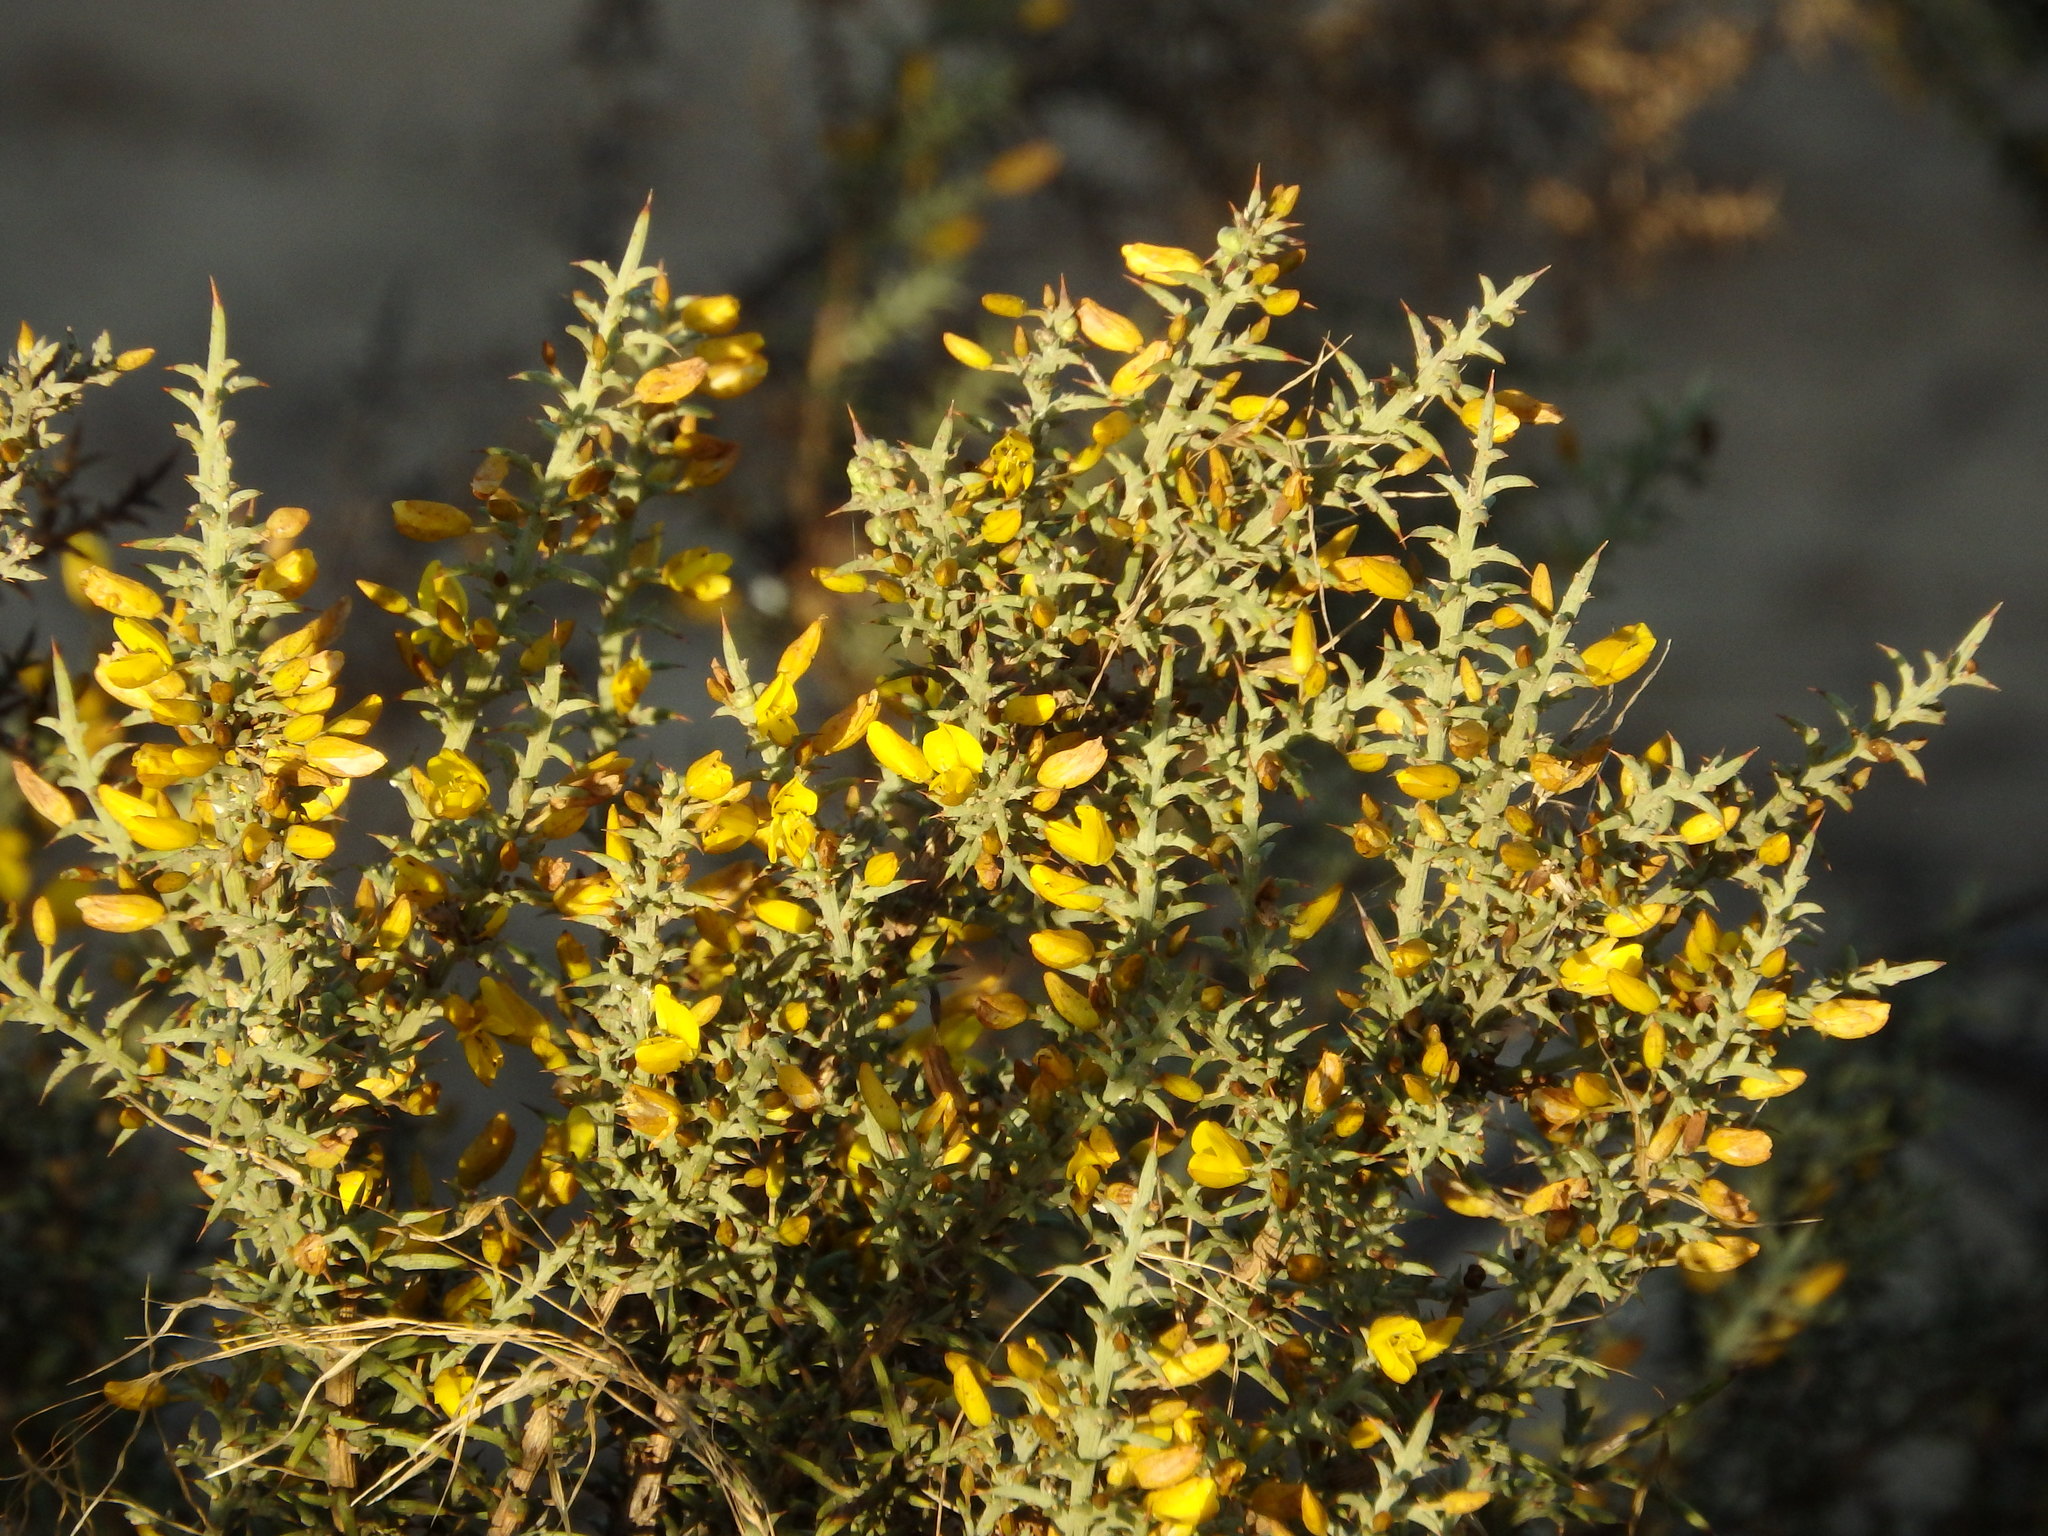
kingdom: Plantae
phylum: Tracheophyta
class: Magnoliopsida
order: Fabales
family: Fabaceae
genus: Ulex
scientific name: Ulex argenteus
